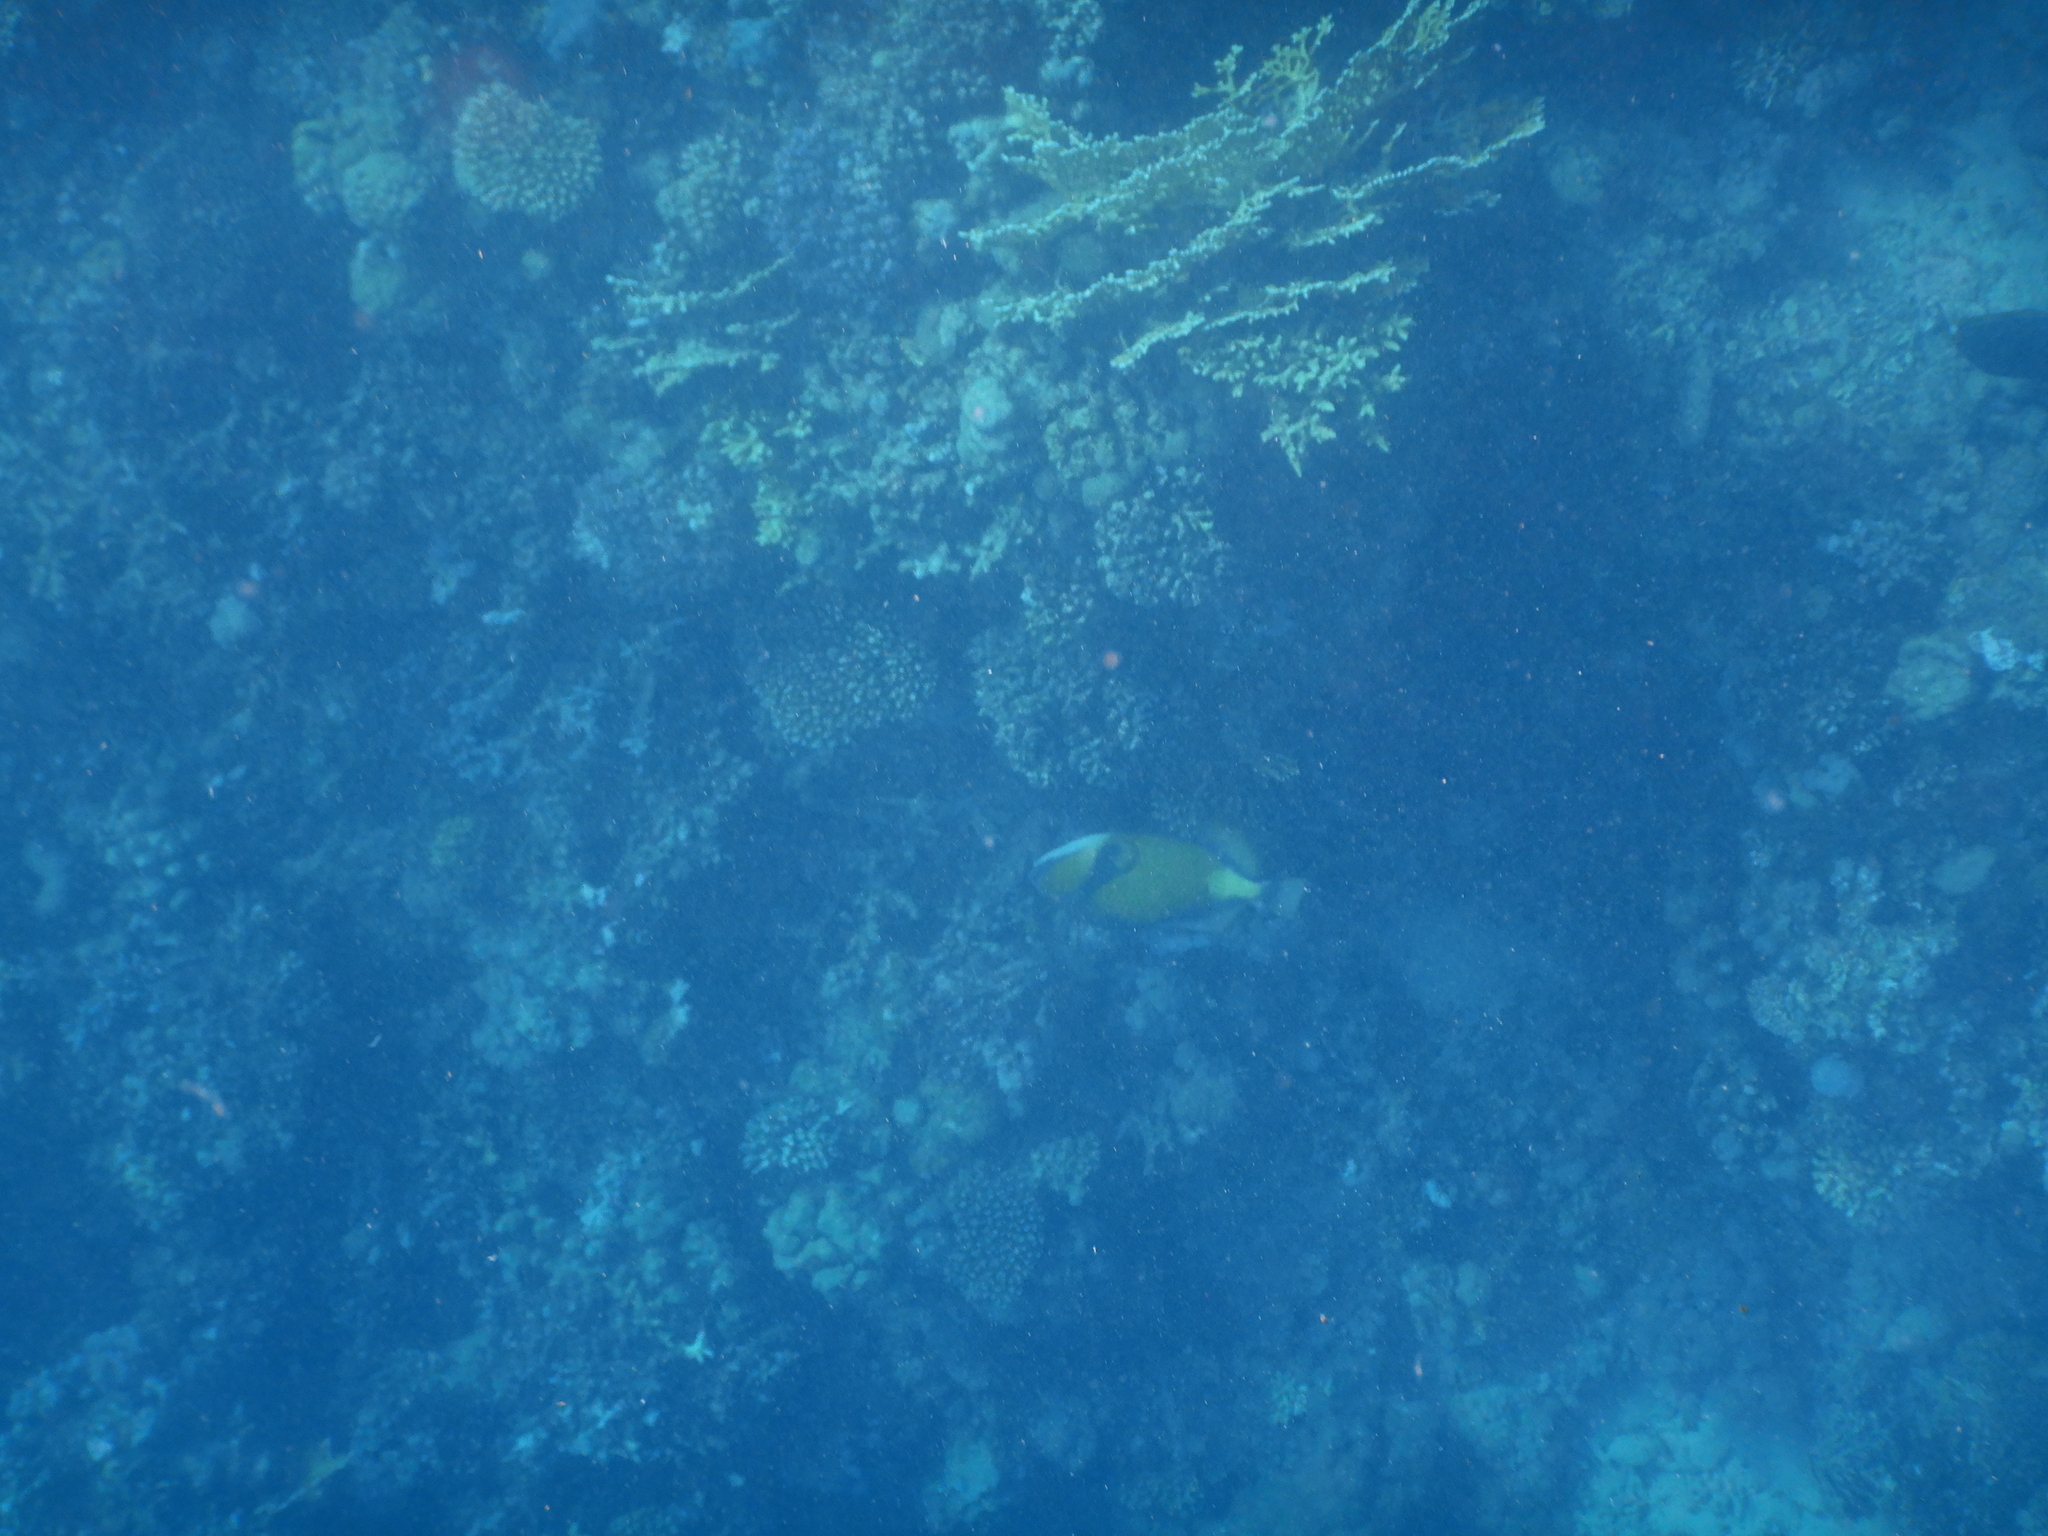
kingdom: Animalia
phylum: Chordata
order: Tetraodontiformes
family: Balistidae
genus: Balistoides
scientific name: Balistoides viridescens
